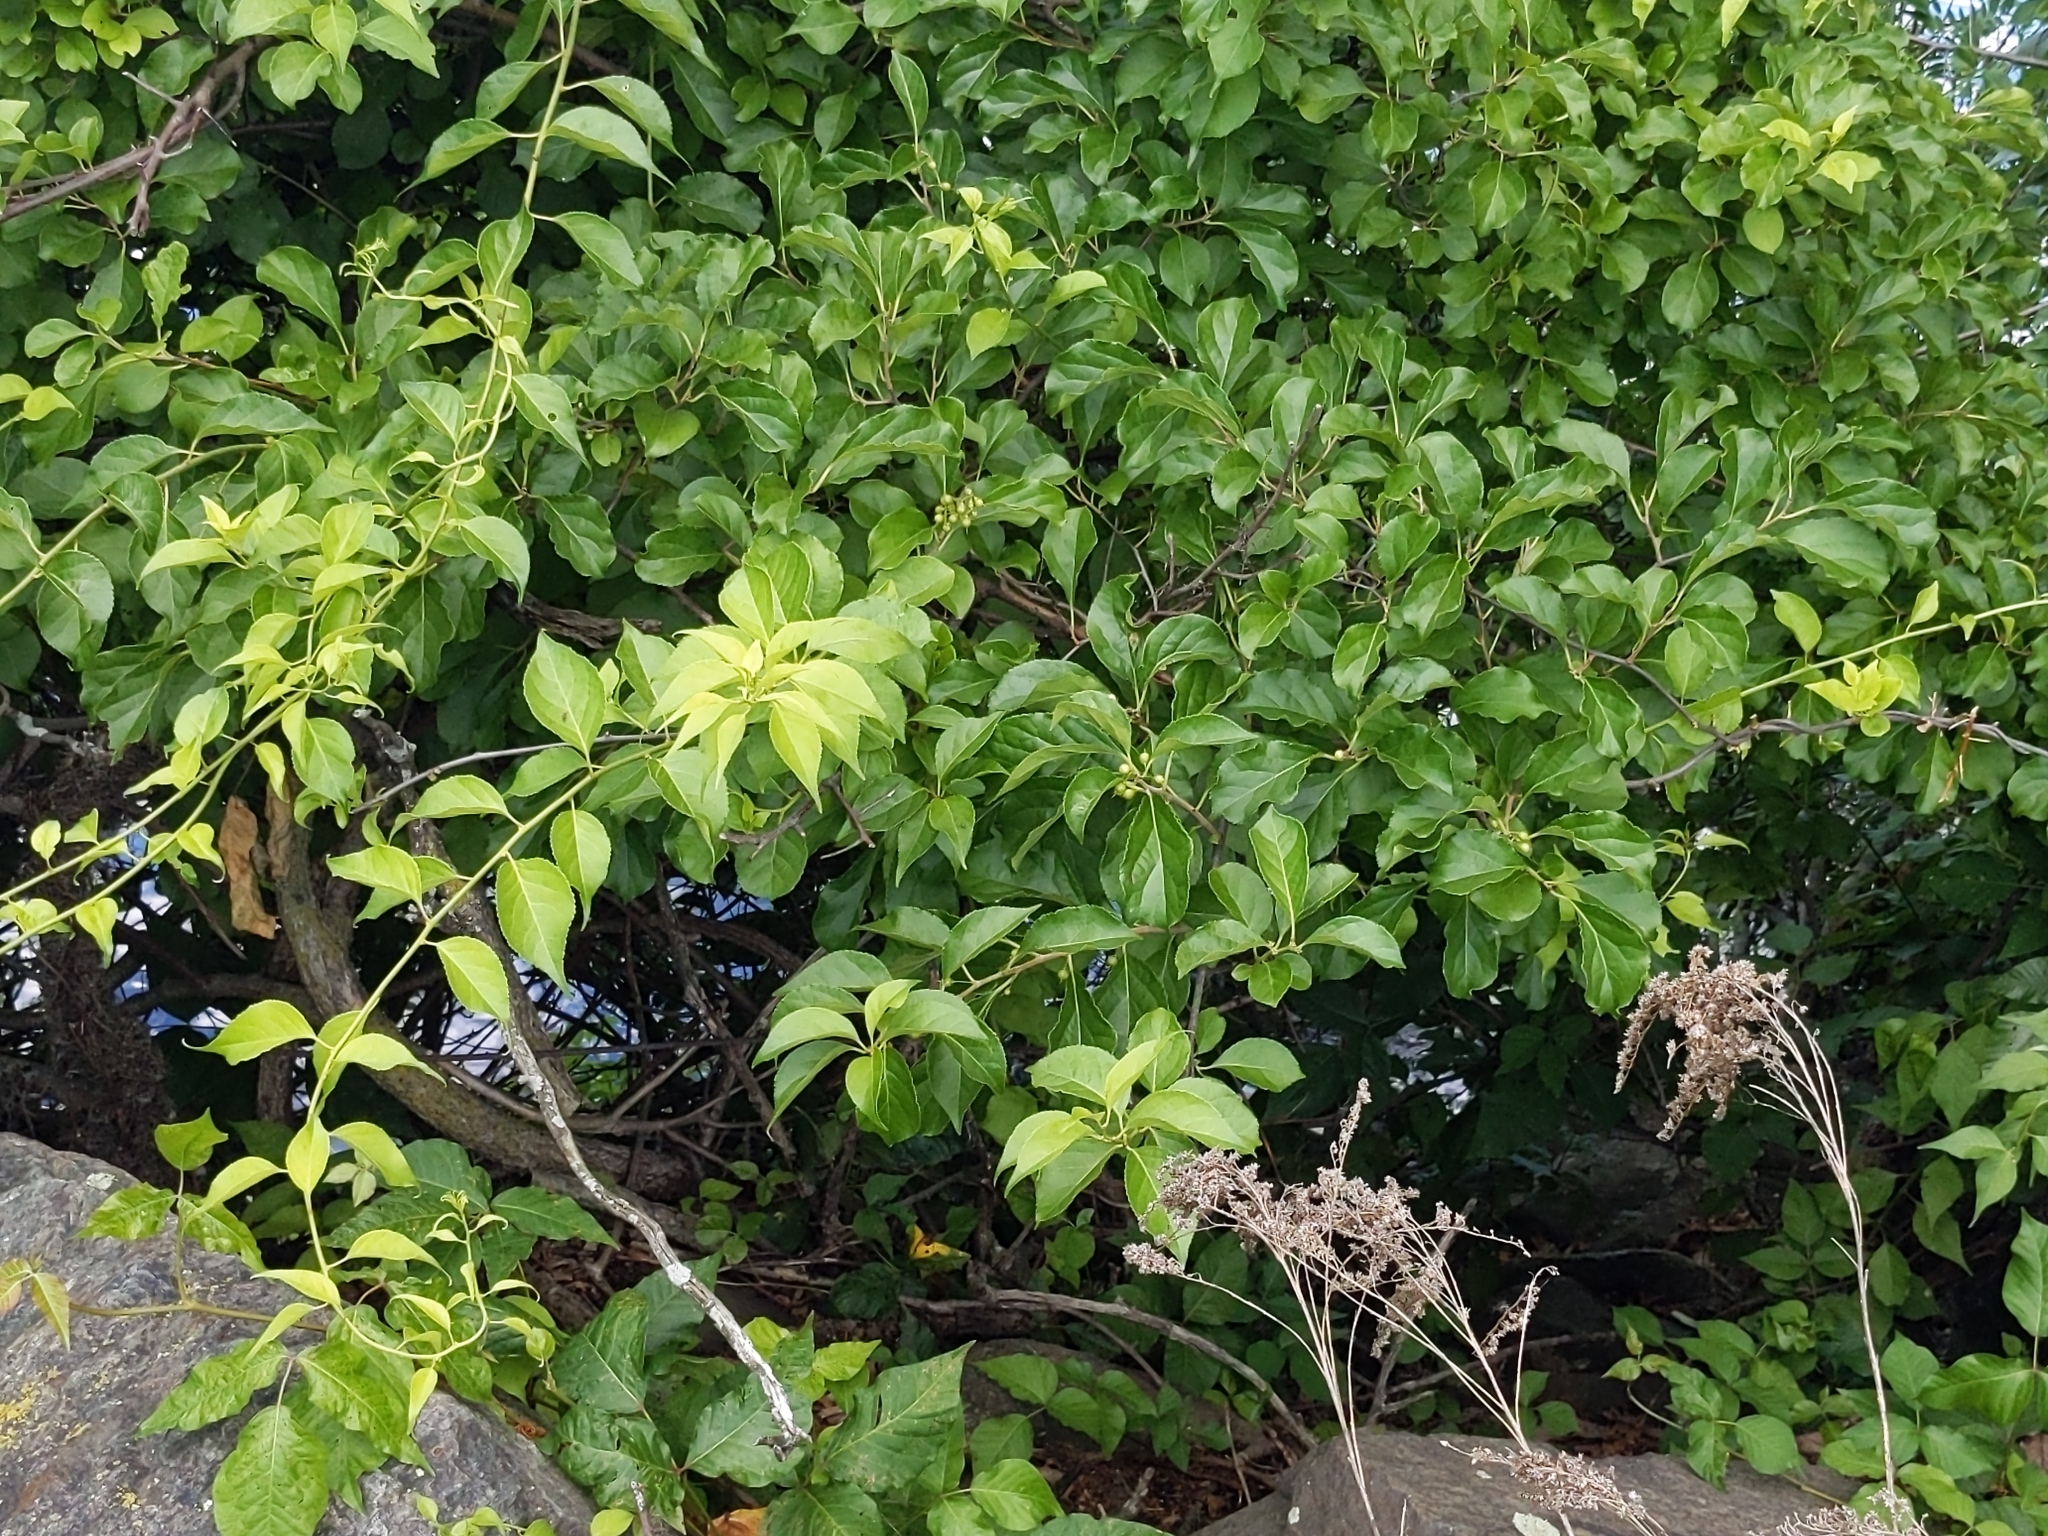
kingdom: Plantae
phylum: Tracheophyta
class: Magnoliopsida
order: Celastrales
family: Celastraceae
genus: Celastrus
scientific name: Celastrus orbiculatus
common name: Oriental bittersweet
